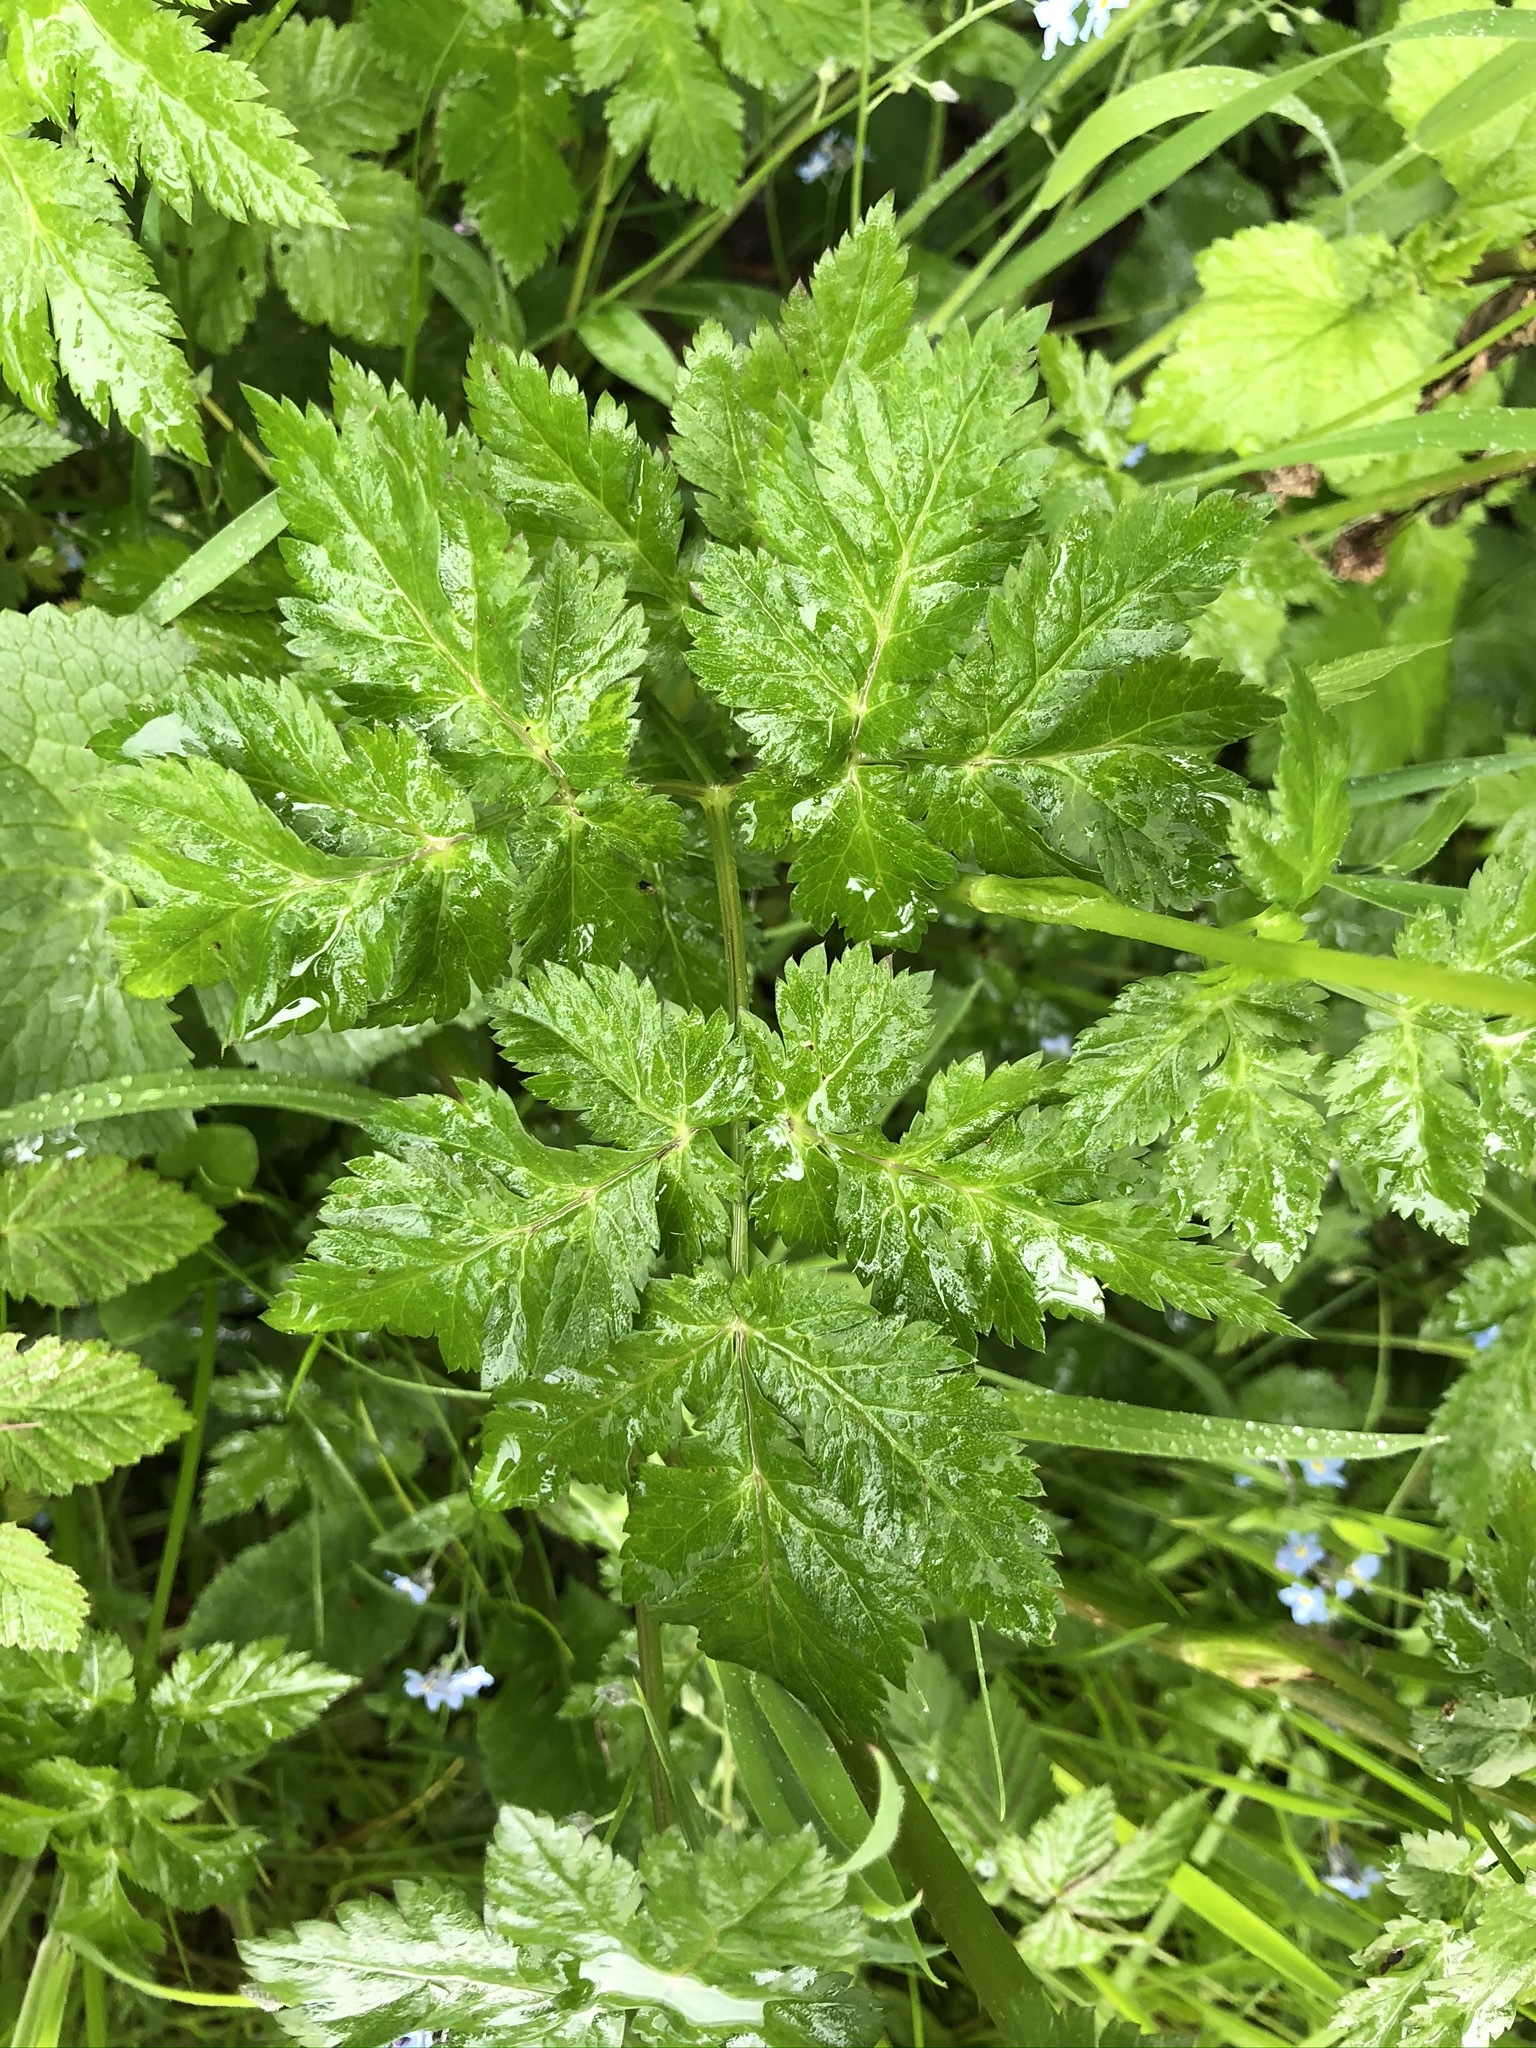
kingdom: Plantae
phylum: Tracheophyta
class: Magnoliopsida
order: Apiales
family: Apiaceae
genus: Anthriscus
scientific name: Anthriscus sylvestris
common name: Cow parsley
